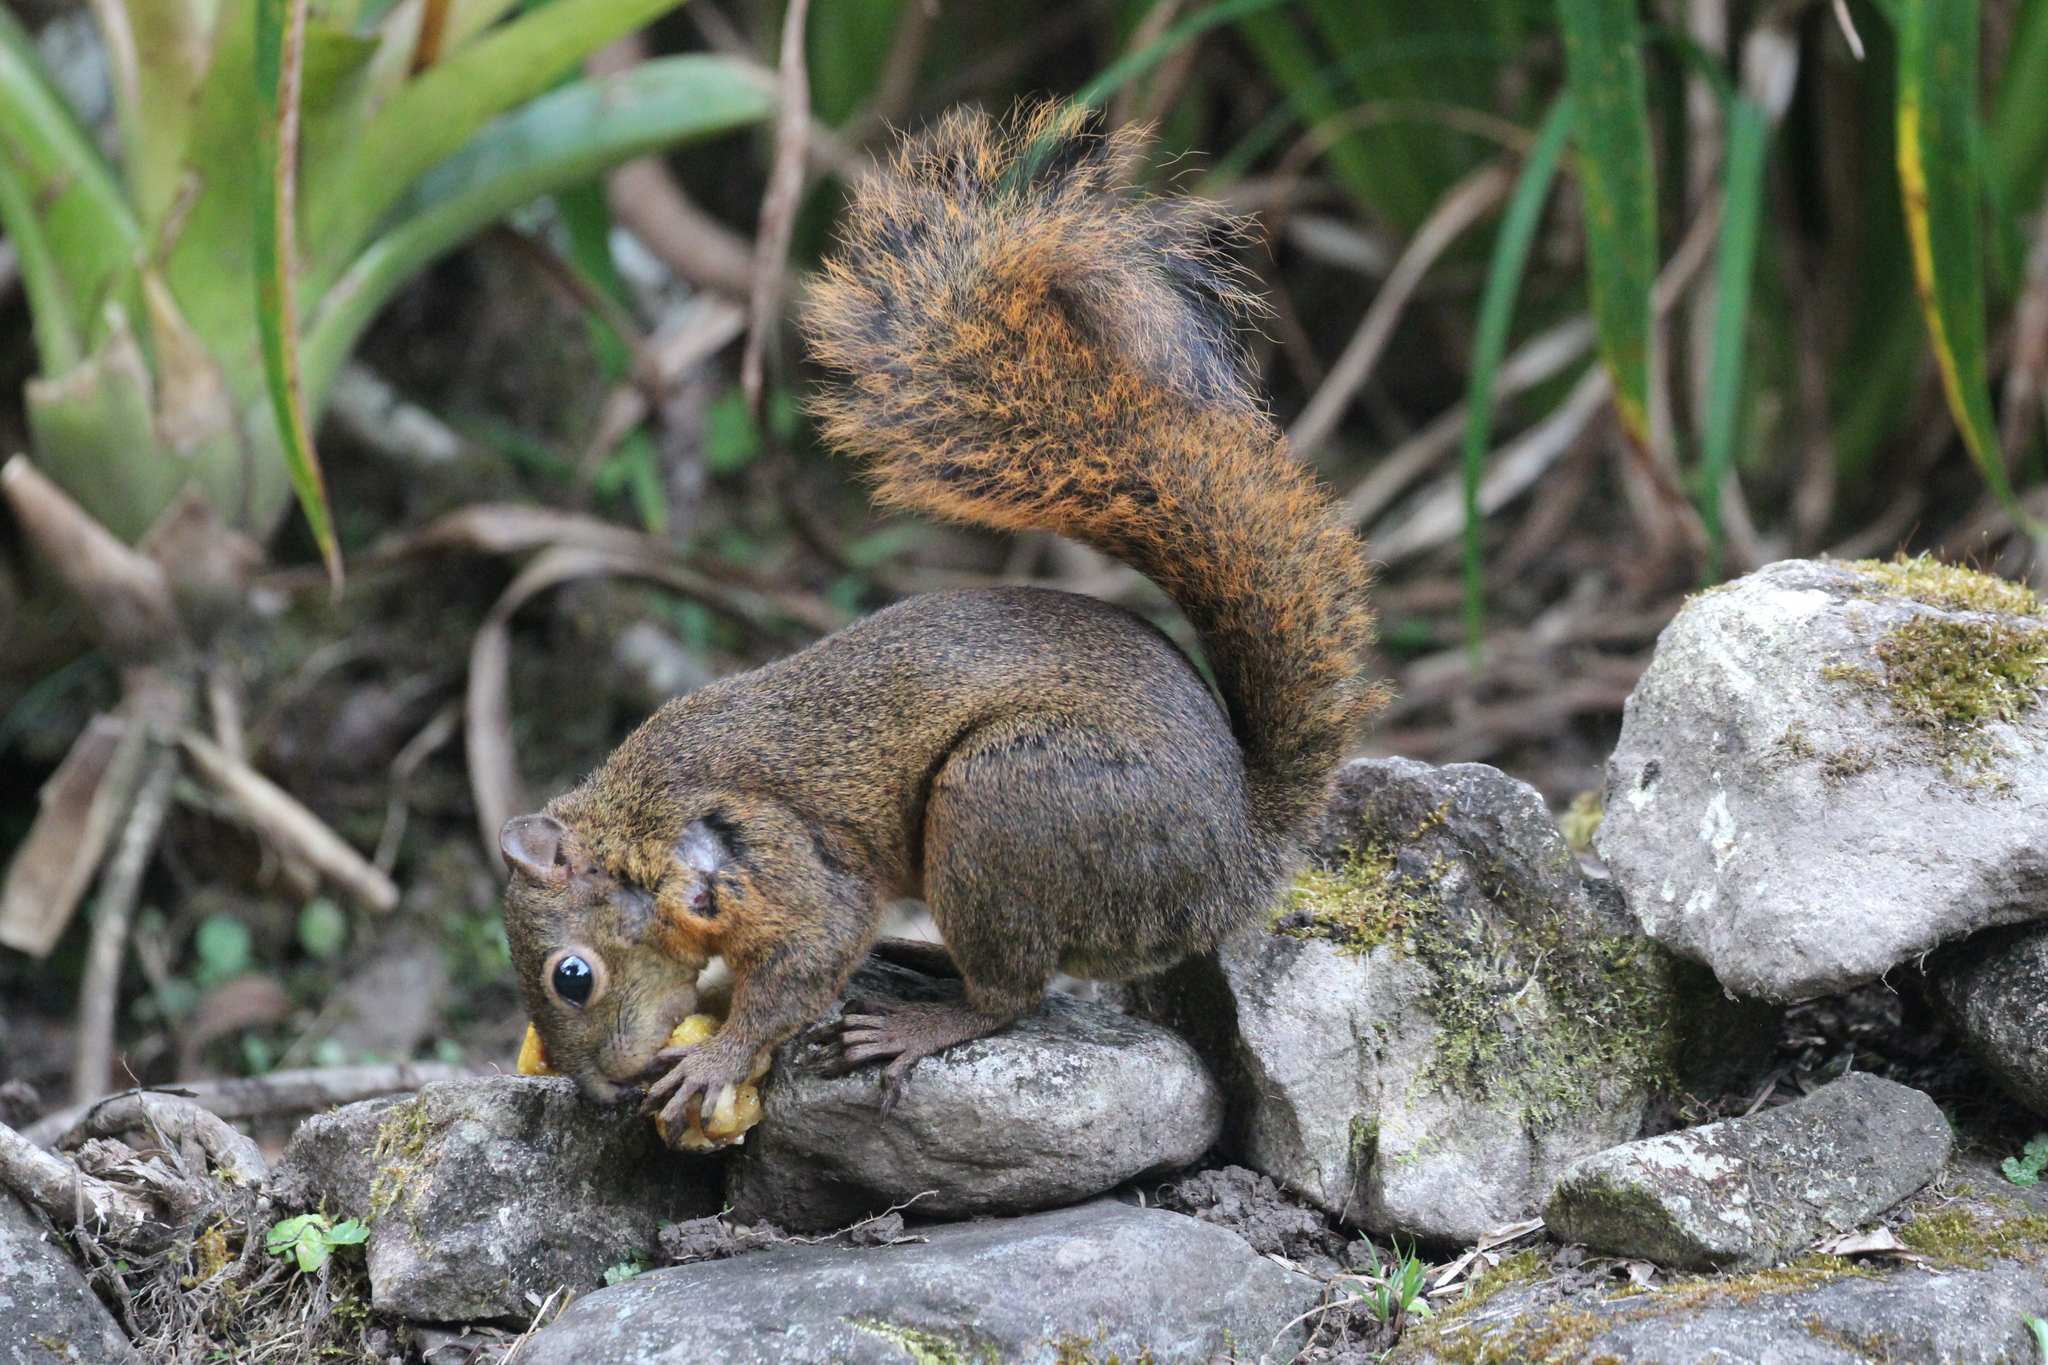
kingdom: Animalia
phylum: Chordata
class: Mammalia
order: Rodentia
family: Sciuridae
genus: Sciurus
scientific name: Sciurus granatensis
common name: Red-tailed squirrel
